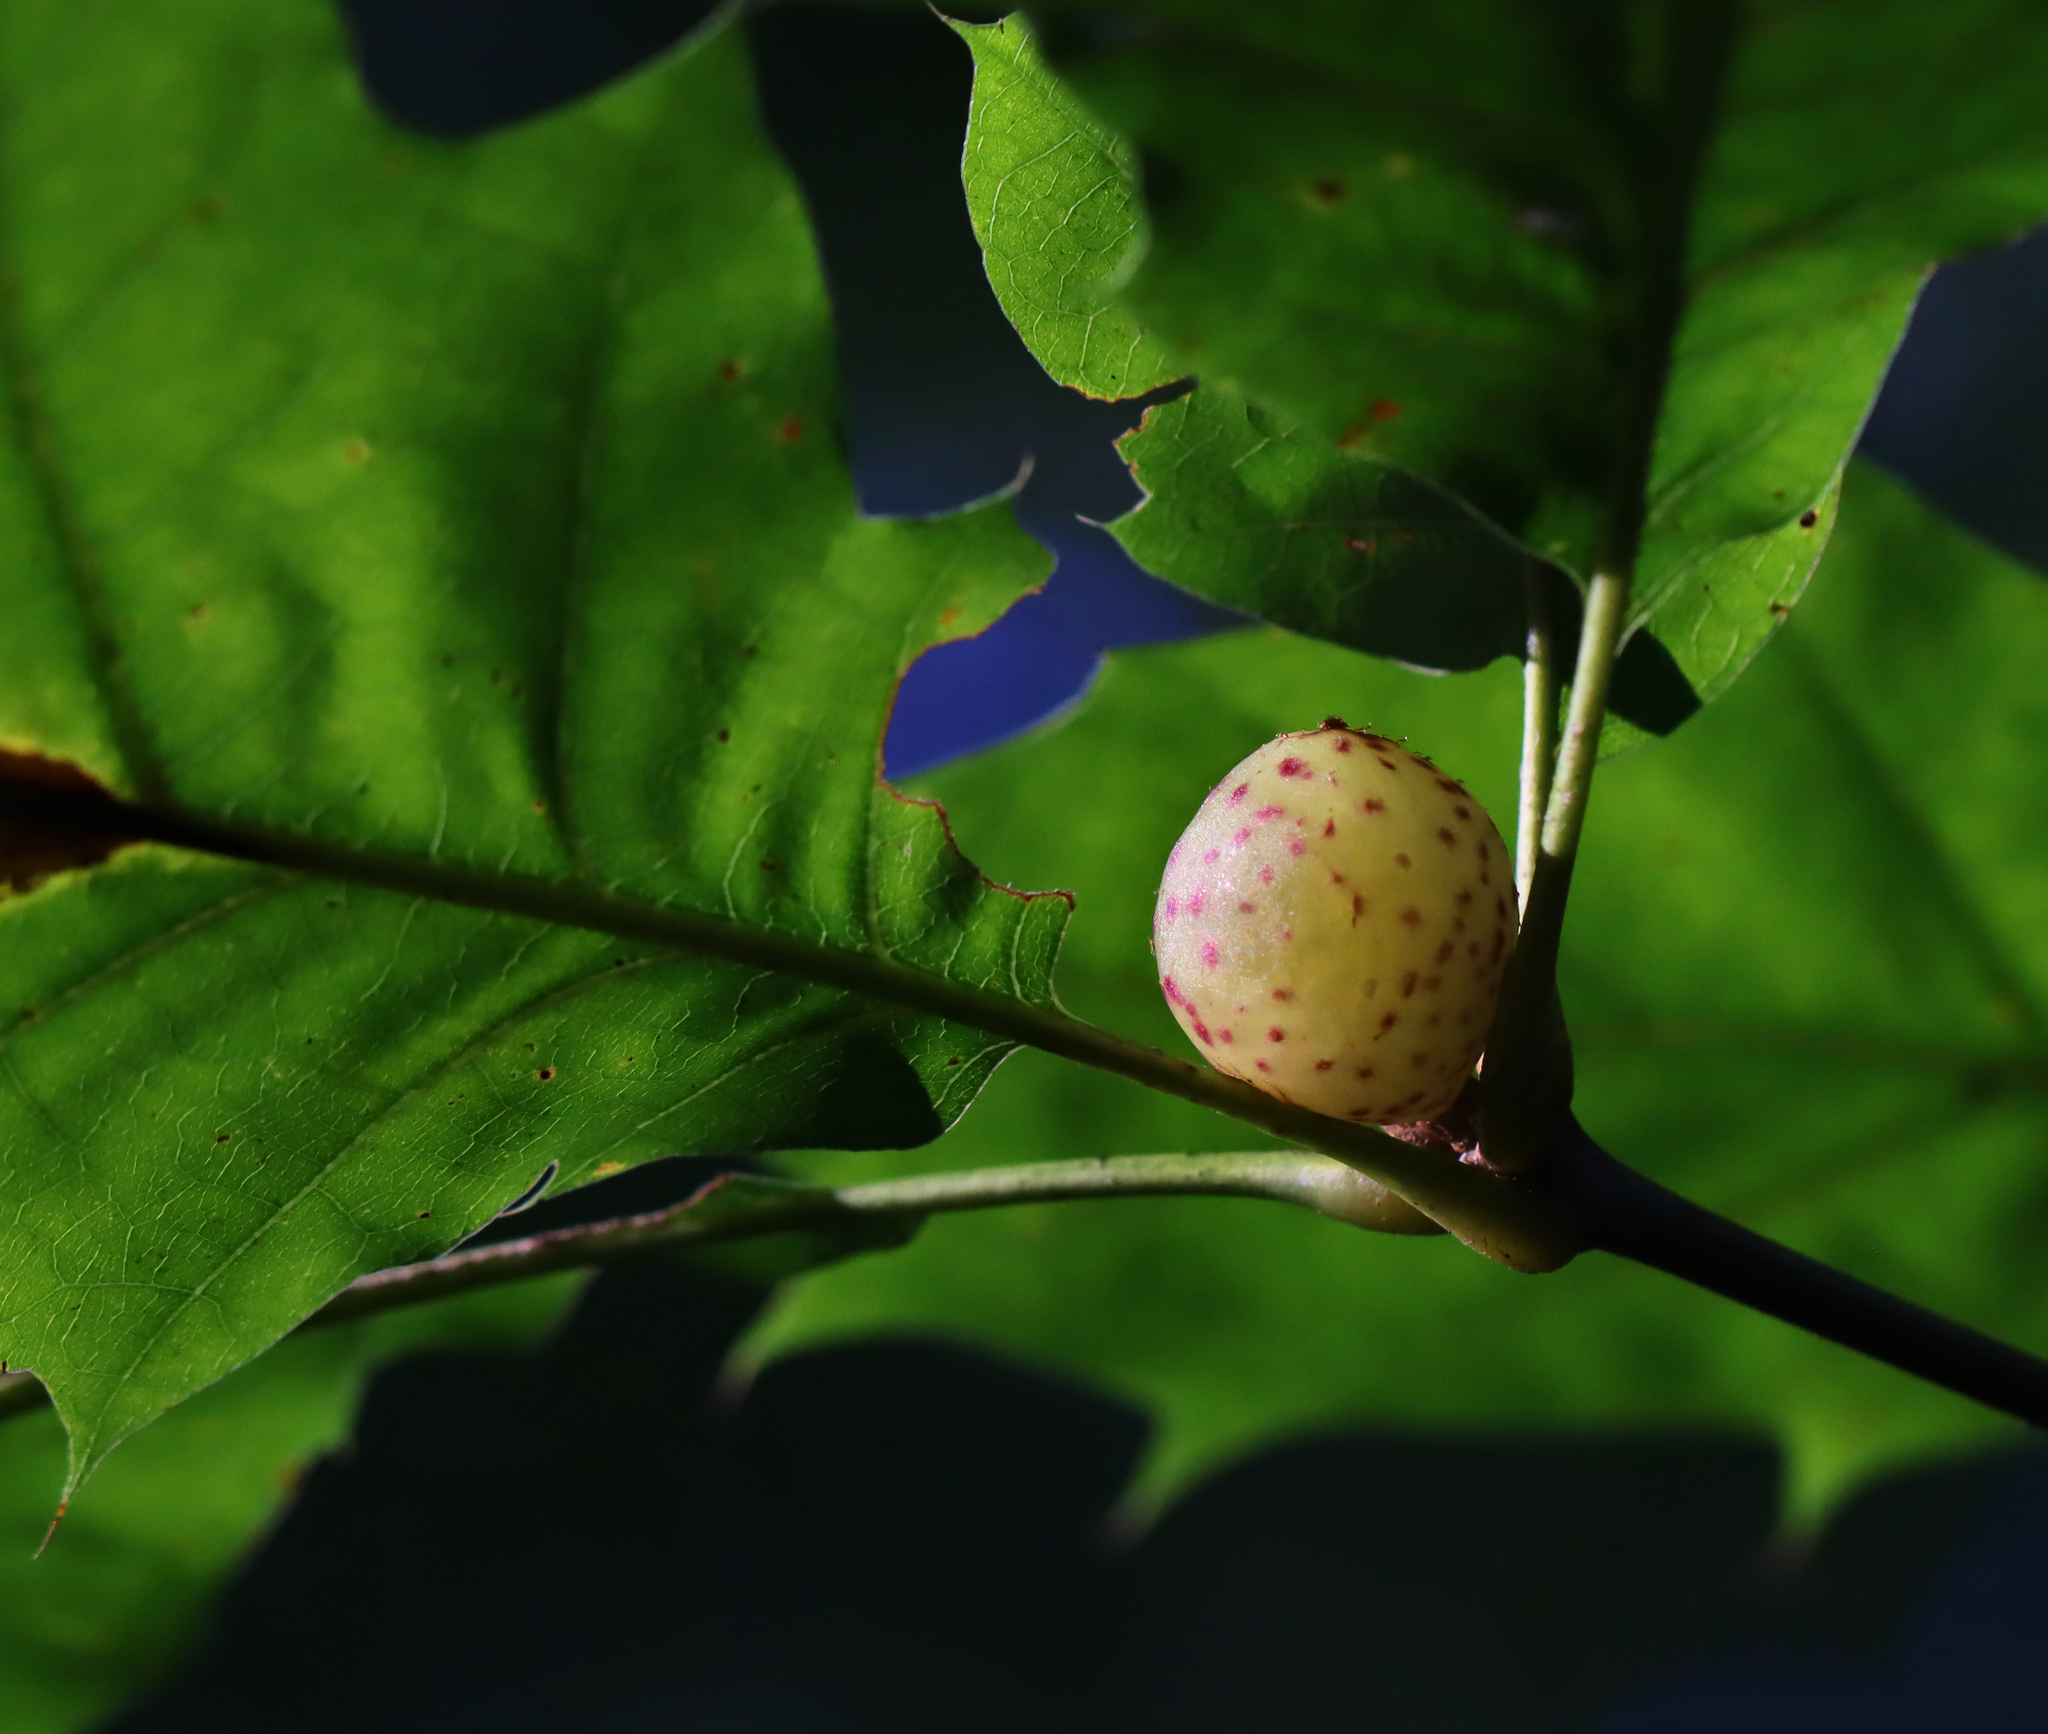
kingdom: Animalia
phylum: Arthropoda
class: Insecta
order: Hymenoptera
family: Cynipidae
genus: Amphibolips
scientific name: Amphibolips
